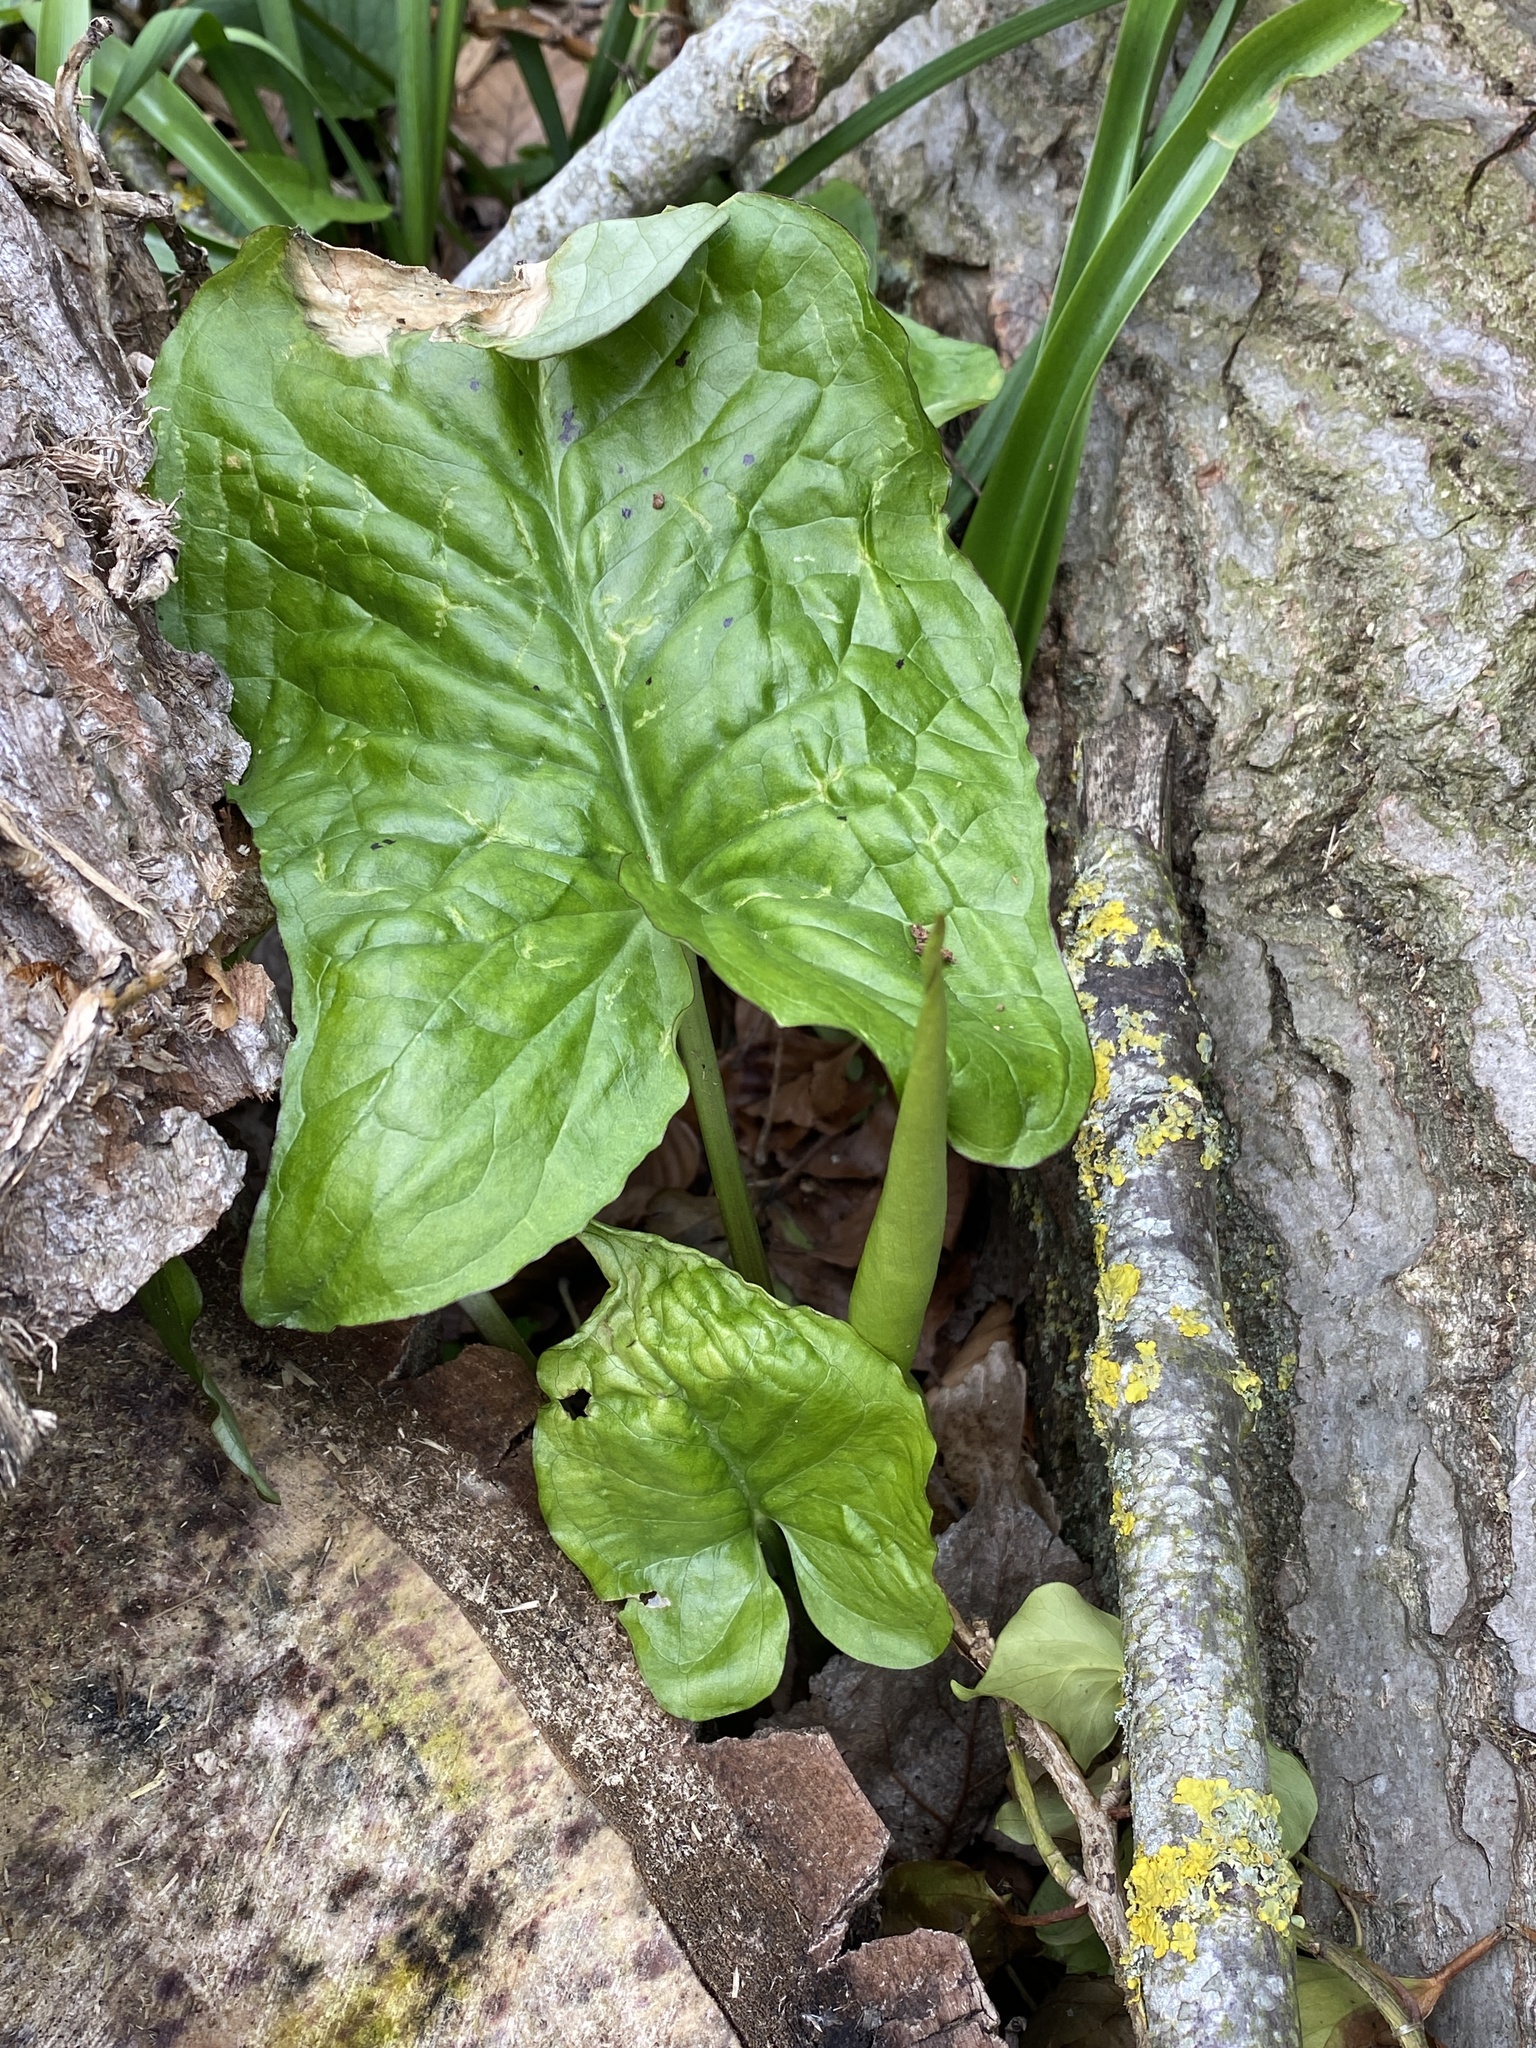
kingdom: Plantae
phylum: Tracheophyta
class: Liliopsida
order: Alismatales
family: Araceae
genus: Arum
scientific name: Arum maculatum
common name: Lords-and-ladies
